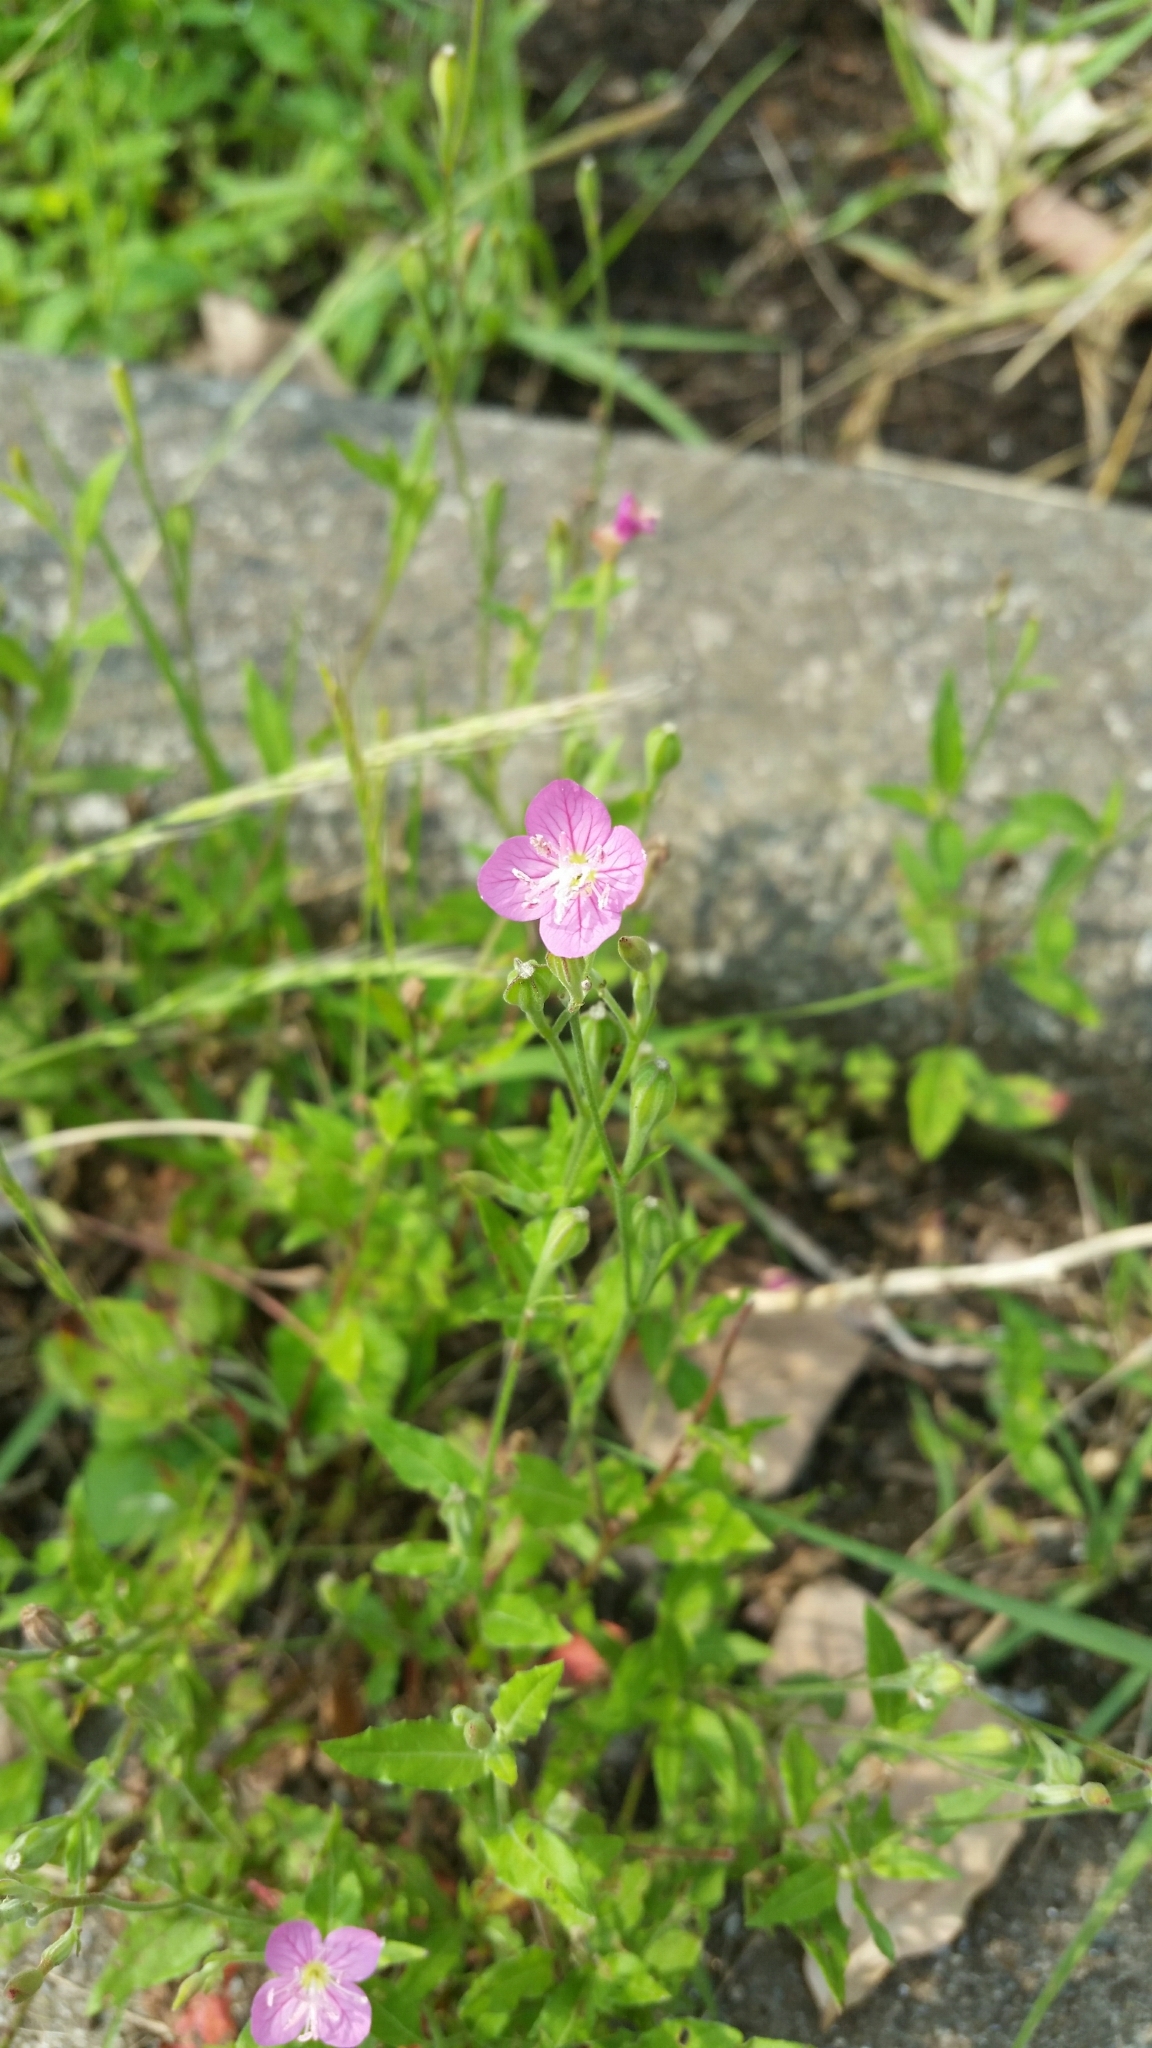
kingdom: Plantae
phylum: Tracheophyta
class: Magnoliopsida
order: Myrtales
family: Onagraceae
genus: Oenothera
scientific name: Oenothera rosea
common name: Rosy evening-primrose
